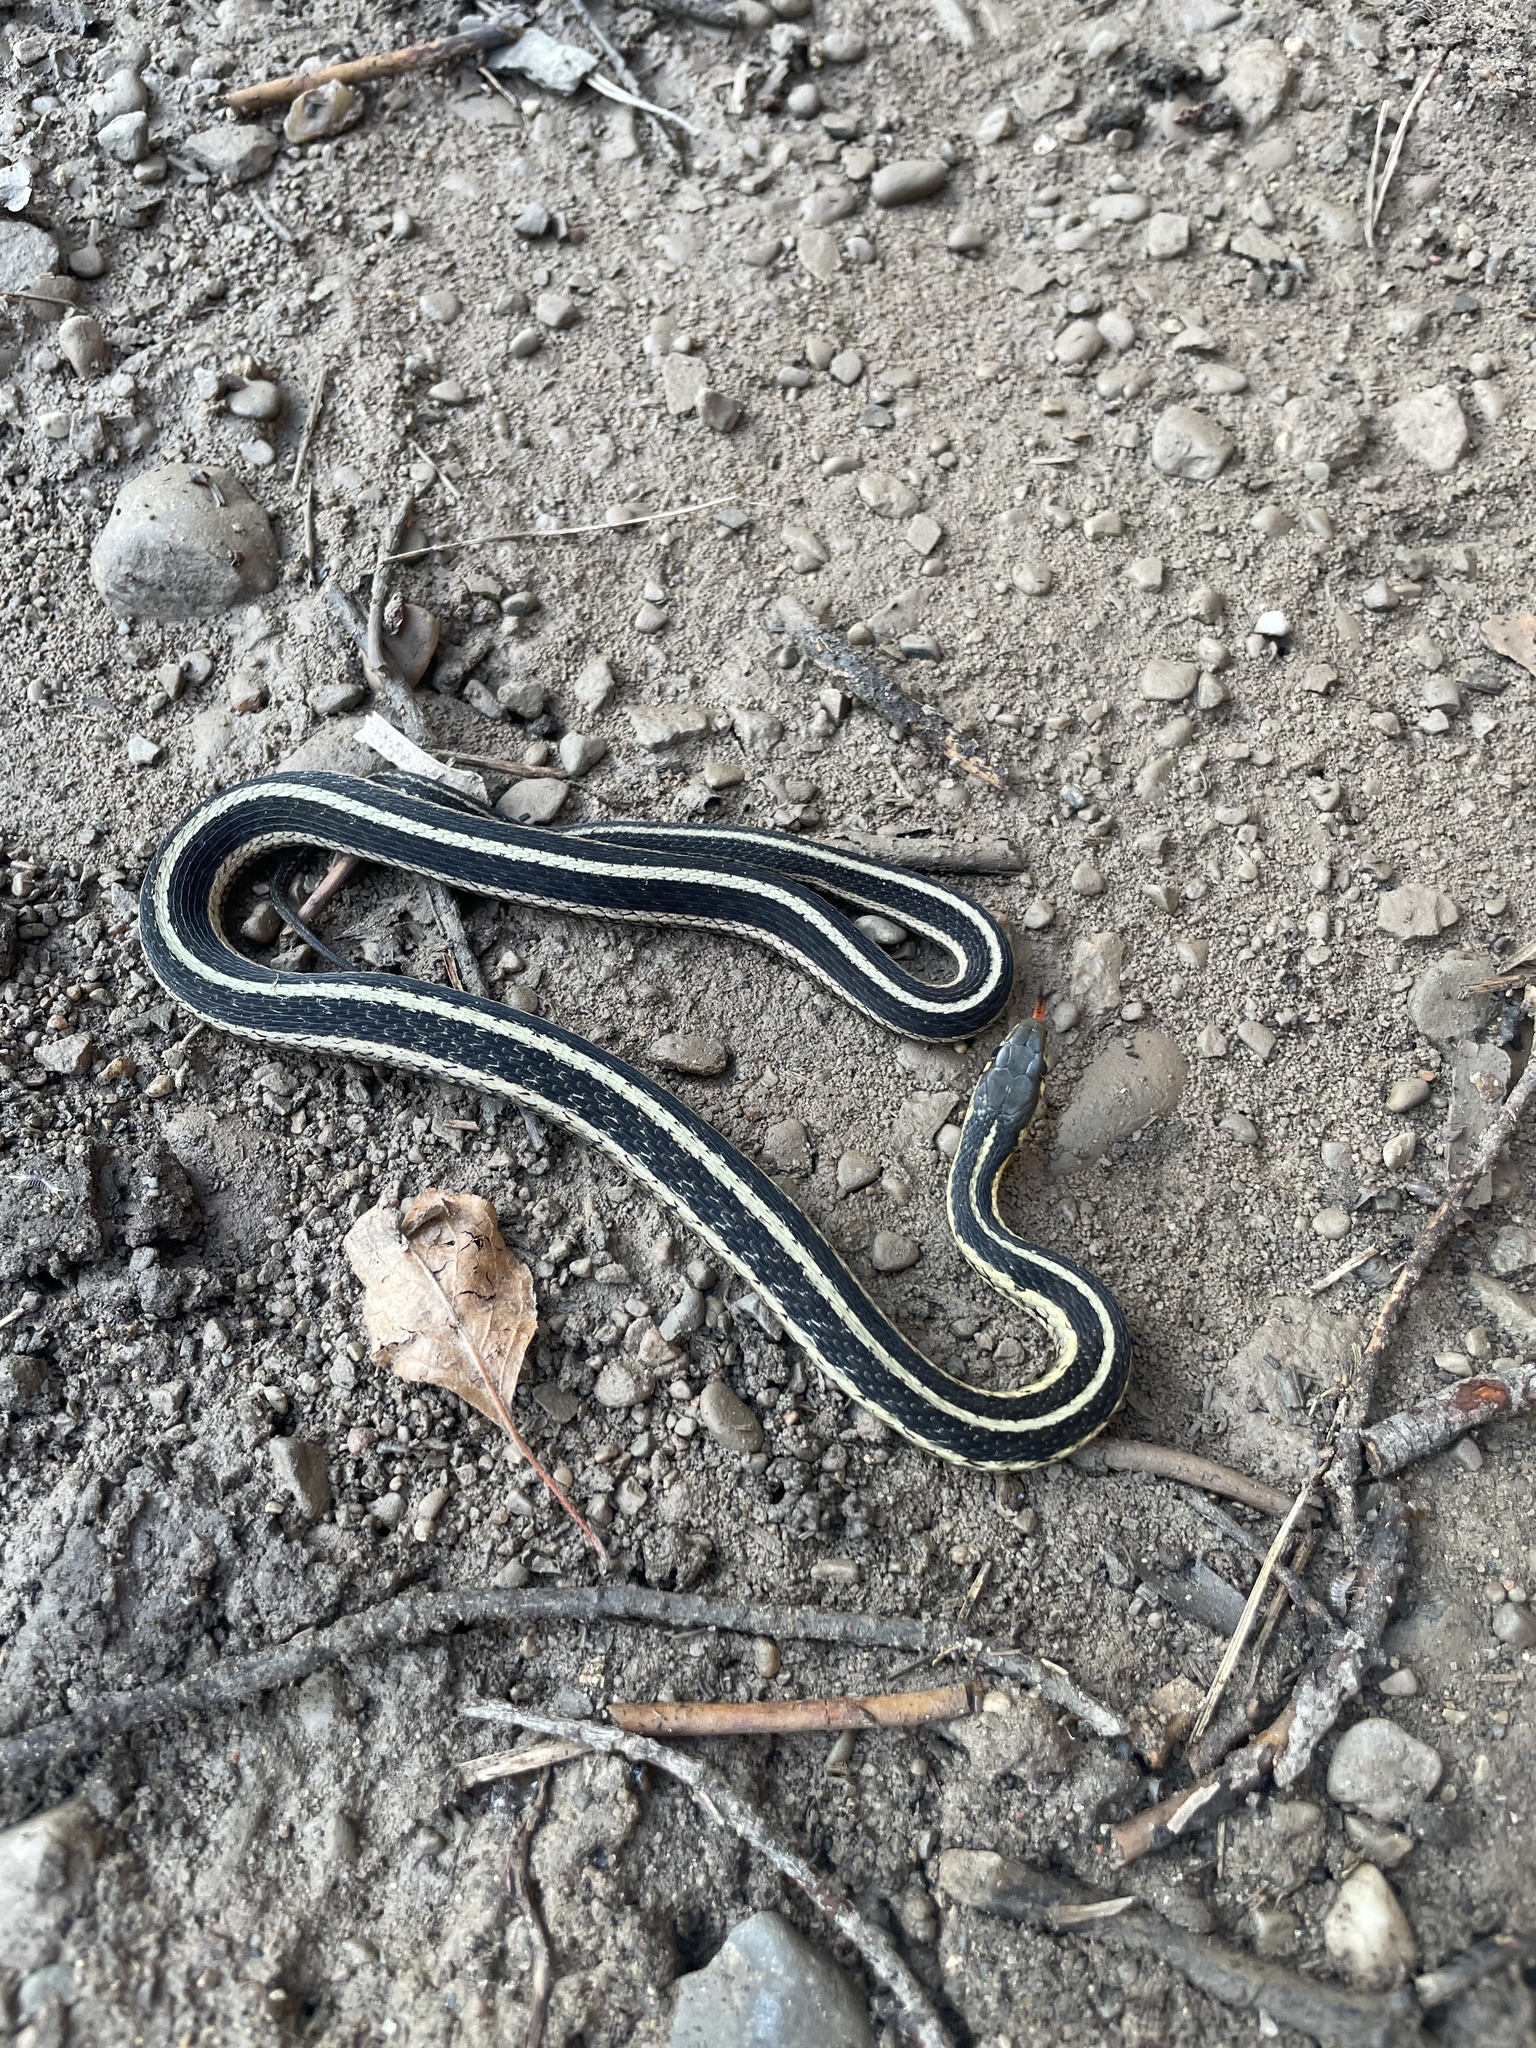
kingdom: Animalia
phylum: Chordata
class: Squamata
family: Colubridae
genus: Thamnophis
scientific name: Thamnophis sirtalis
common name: Common garter snake
